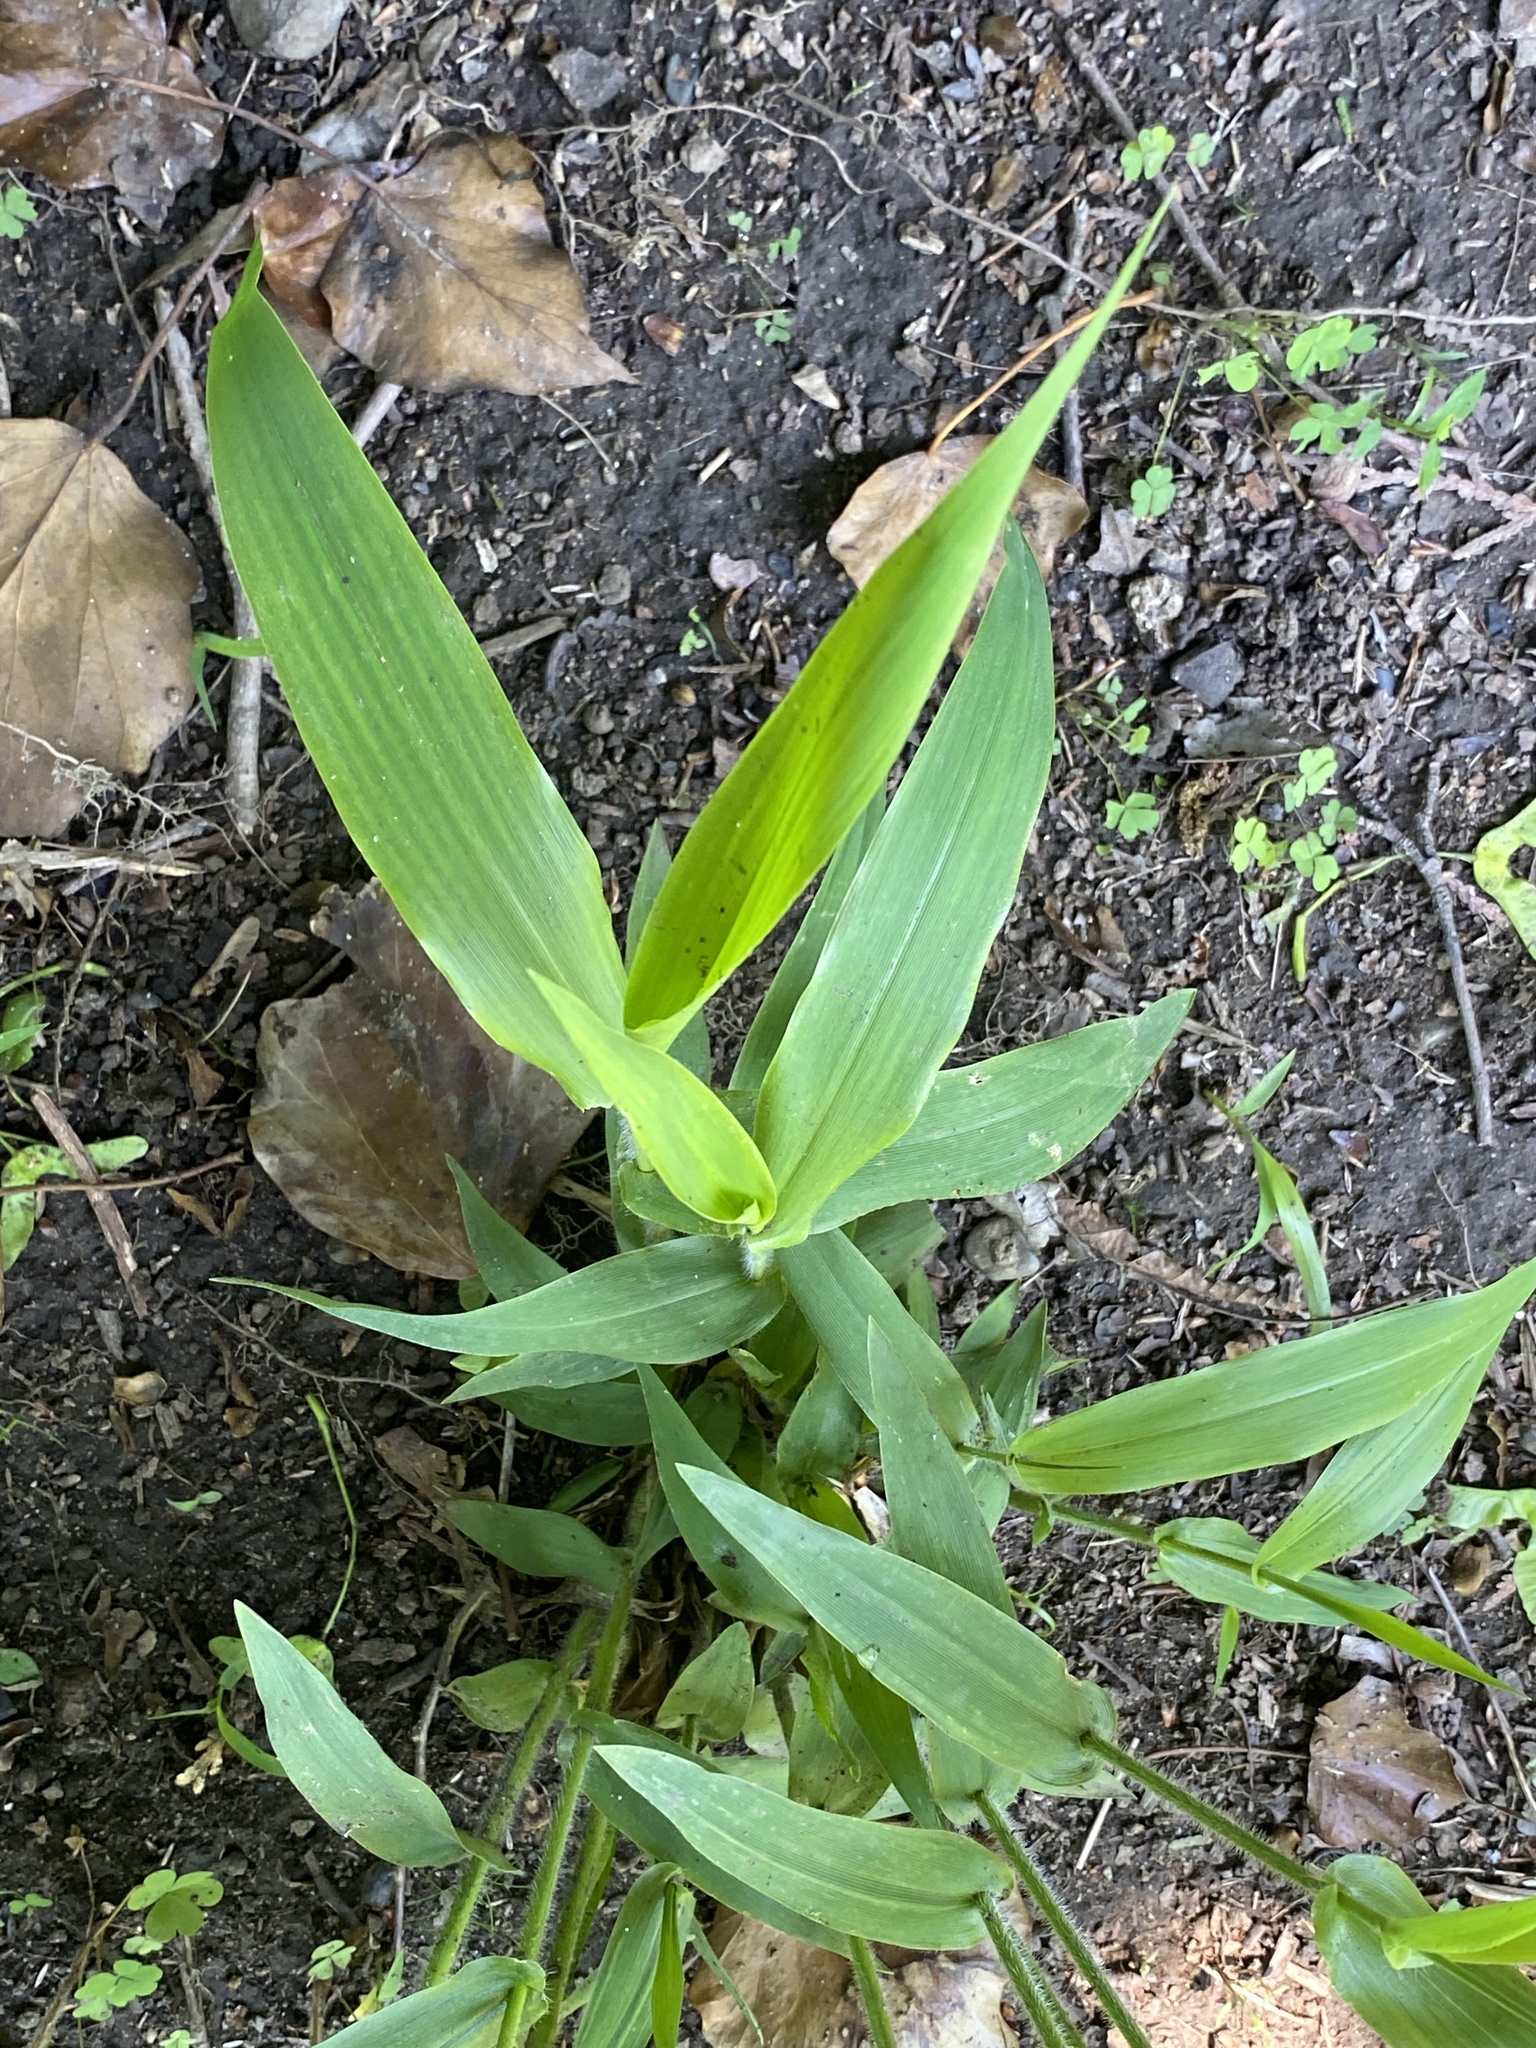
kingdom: Plantae
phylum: Tracheophyta
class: Liliopsida
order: Poales
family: Poaceae
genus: Dichanthelium
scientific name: Dichanthelium clandestinum
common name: Deer-tongue grass
